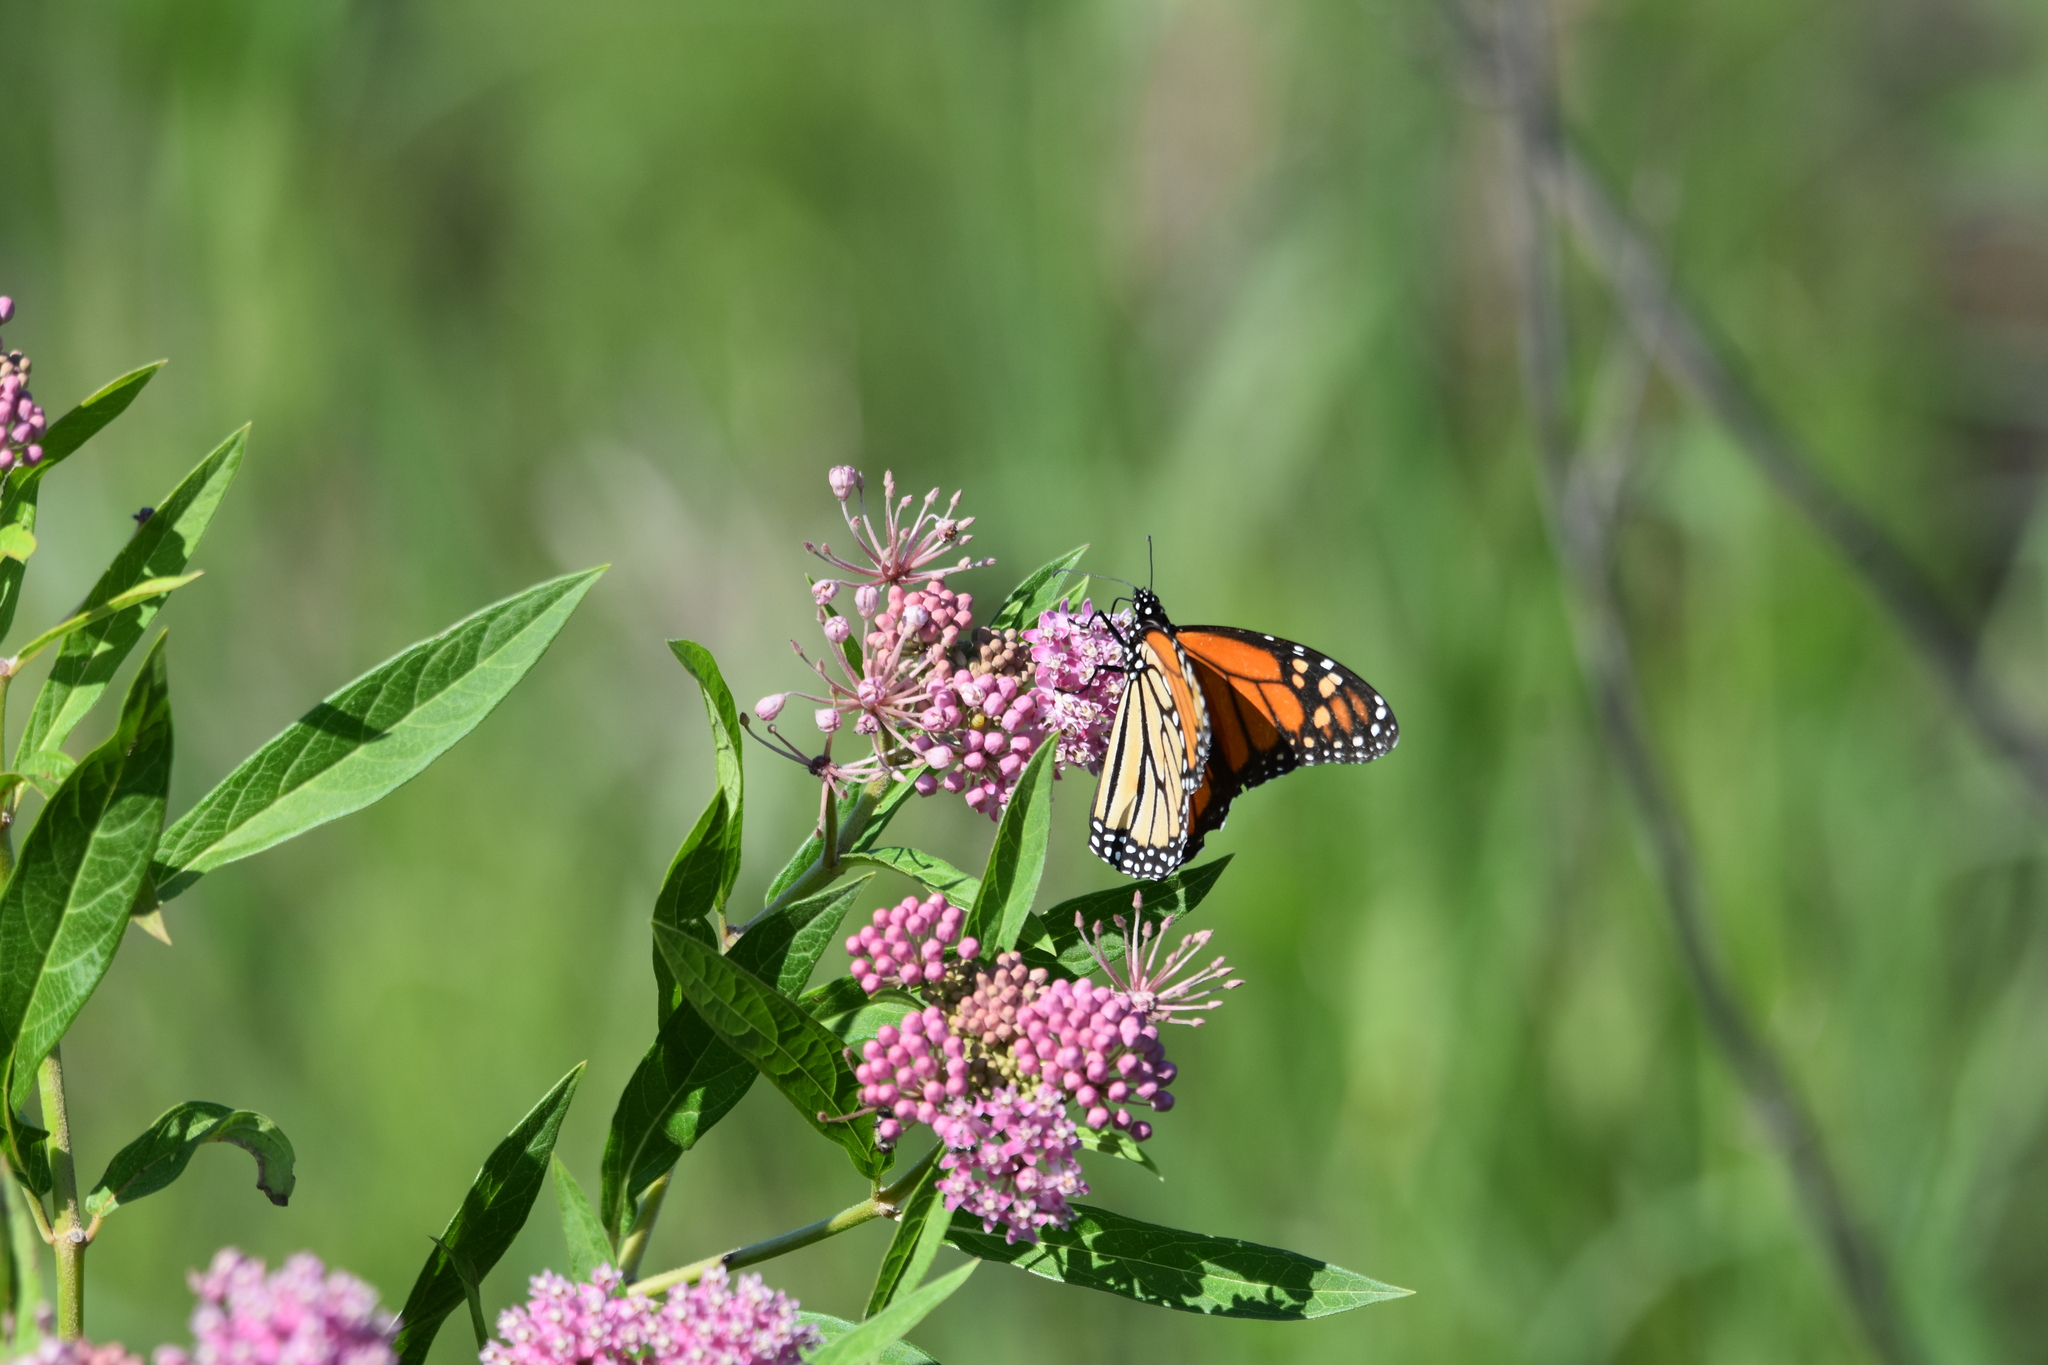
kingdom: Animalia
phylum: Arthropoda
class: Insecta
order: Lepidoptera
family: Nymphalidae
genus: Danaus
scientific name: Danaus plexippus
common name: Monarch
